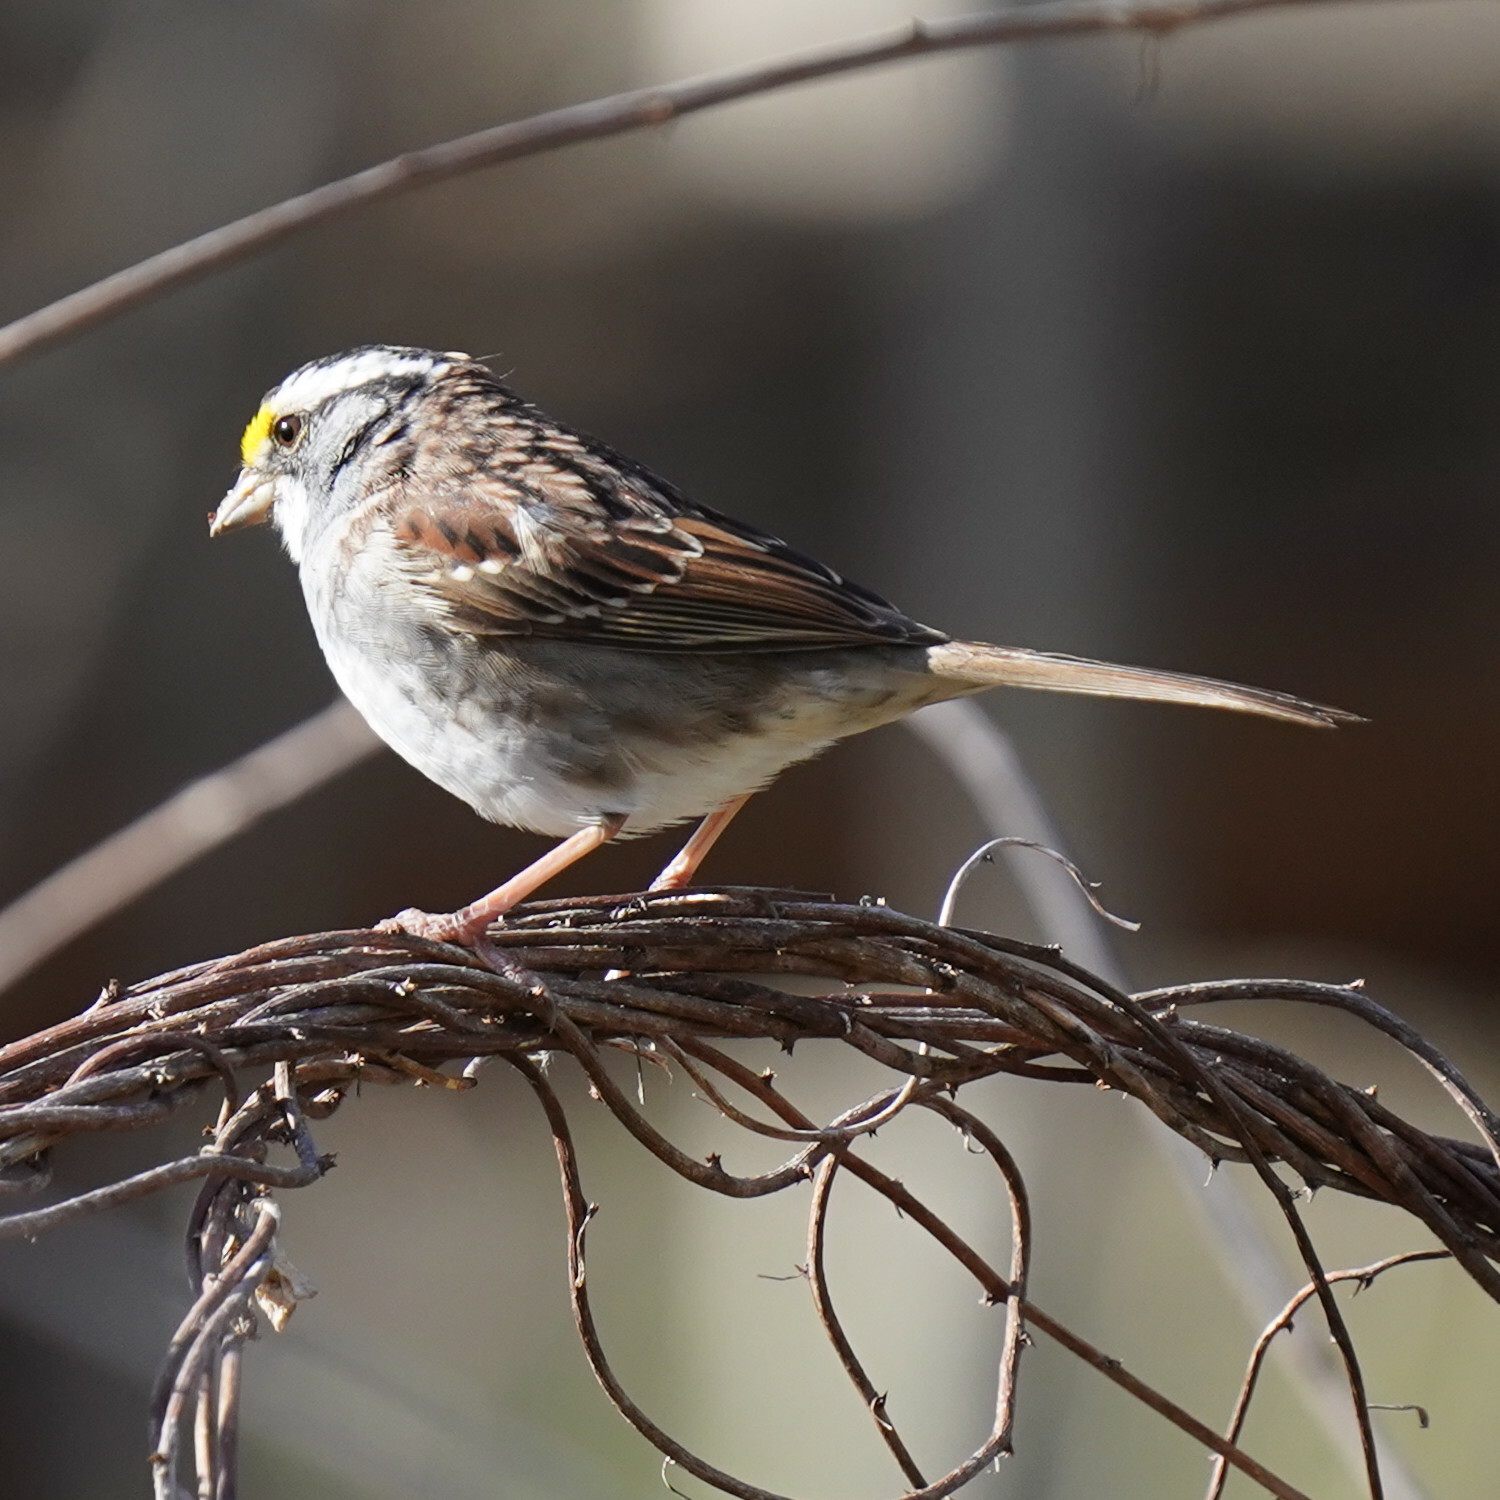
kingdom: Animalia
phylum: Chordata
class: Aves
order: Passeriformes
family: Passerellidae
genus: Zonotrichia
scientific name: Zonotrichia albicollis
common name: White-throated sparrow
